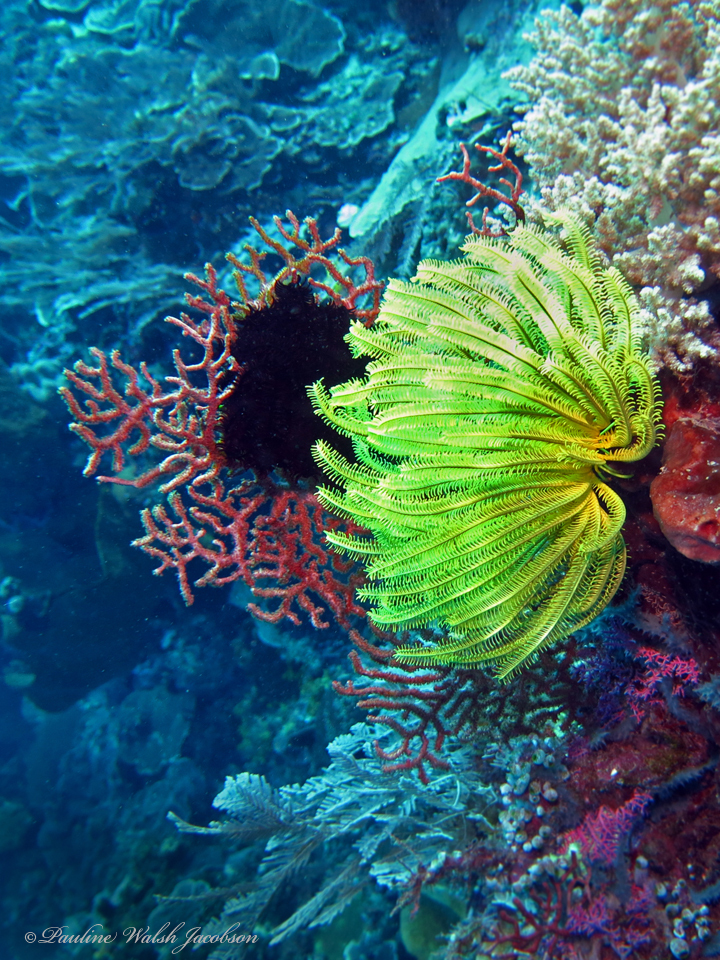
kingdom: Animalia
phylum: Echinodermata
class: Crinoidea
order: Comatulida
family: Comatulidae
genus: Anneissia
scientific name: Anneissia bennetti
